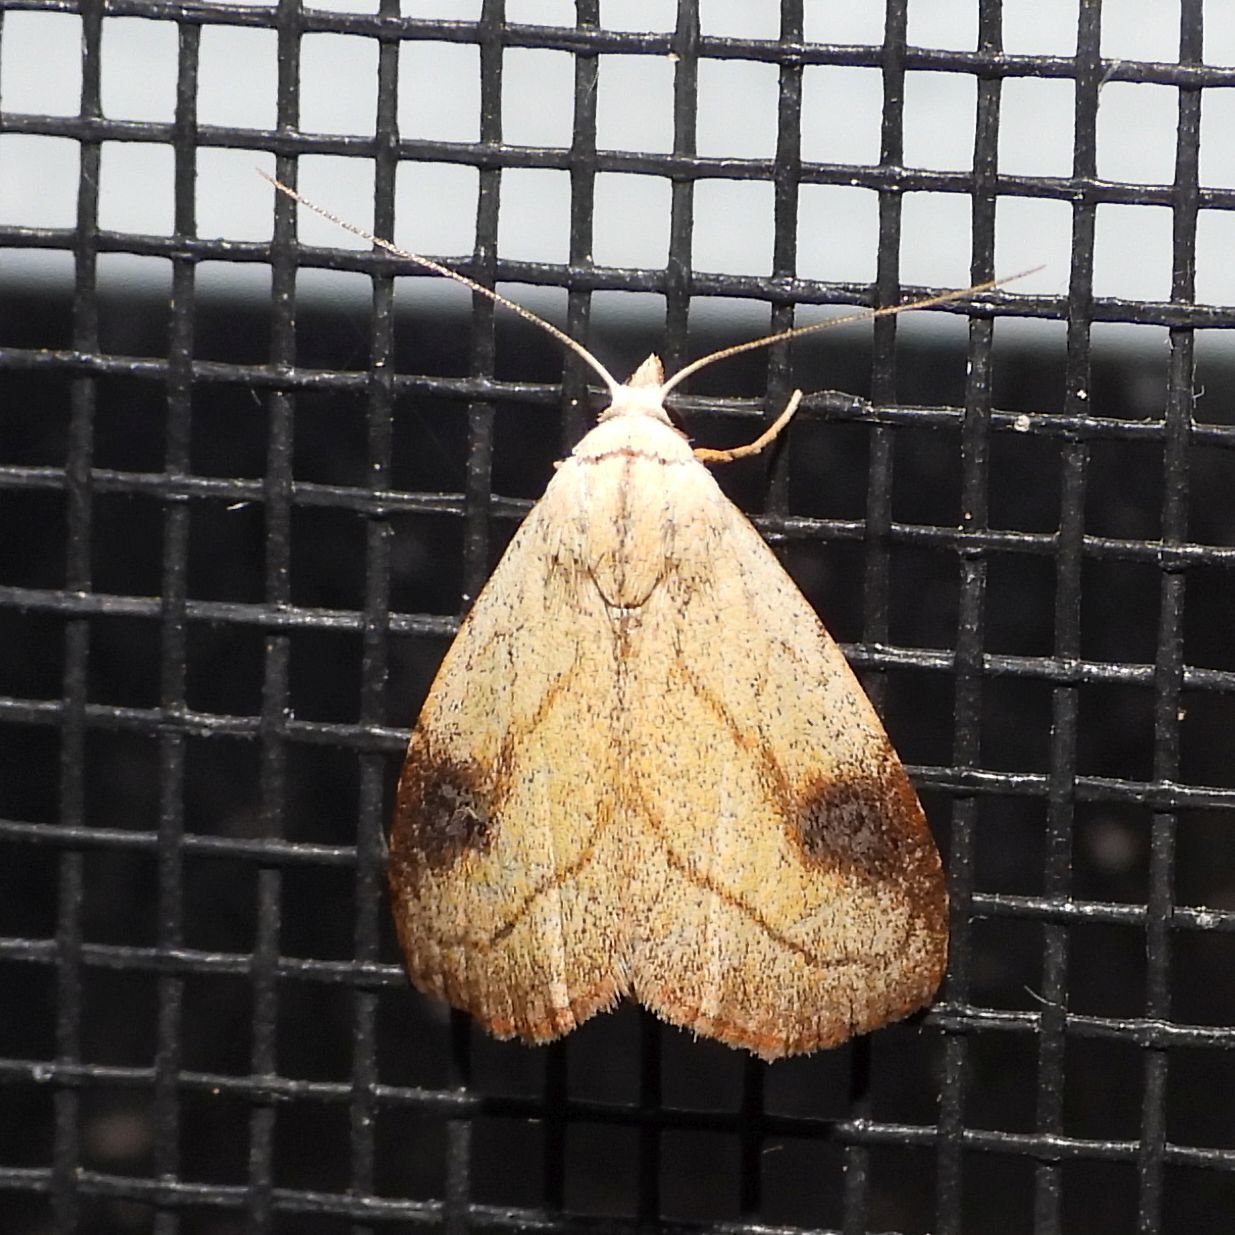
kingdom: Animalia
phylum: Arthropoda
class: Insecta
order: Lepidoptera
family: Erebidae
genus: Rivula
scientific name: Rivula propinqualis
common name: Spotted grass moth
